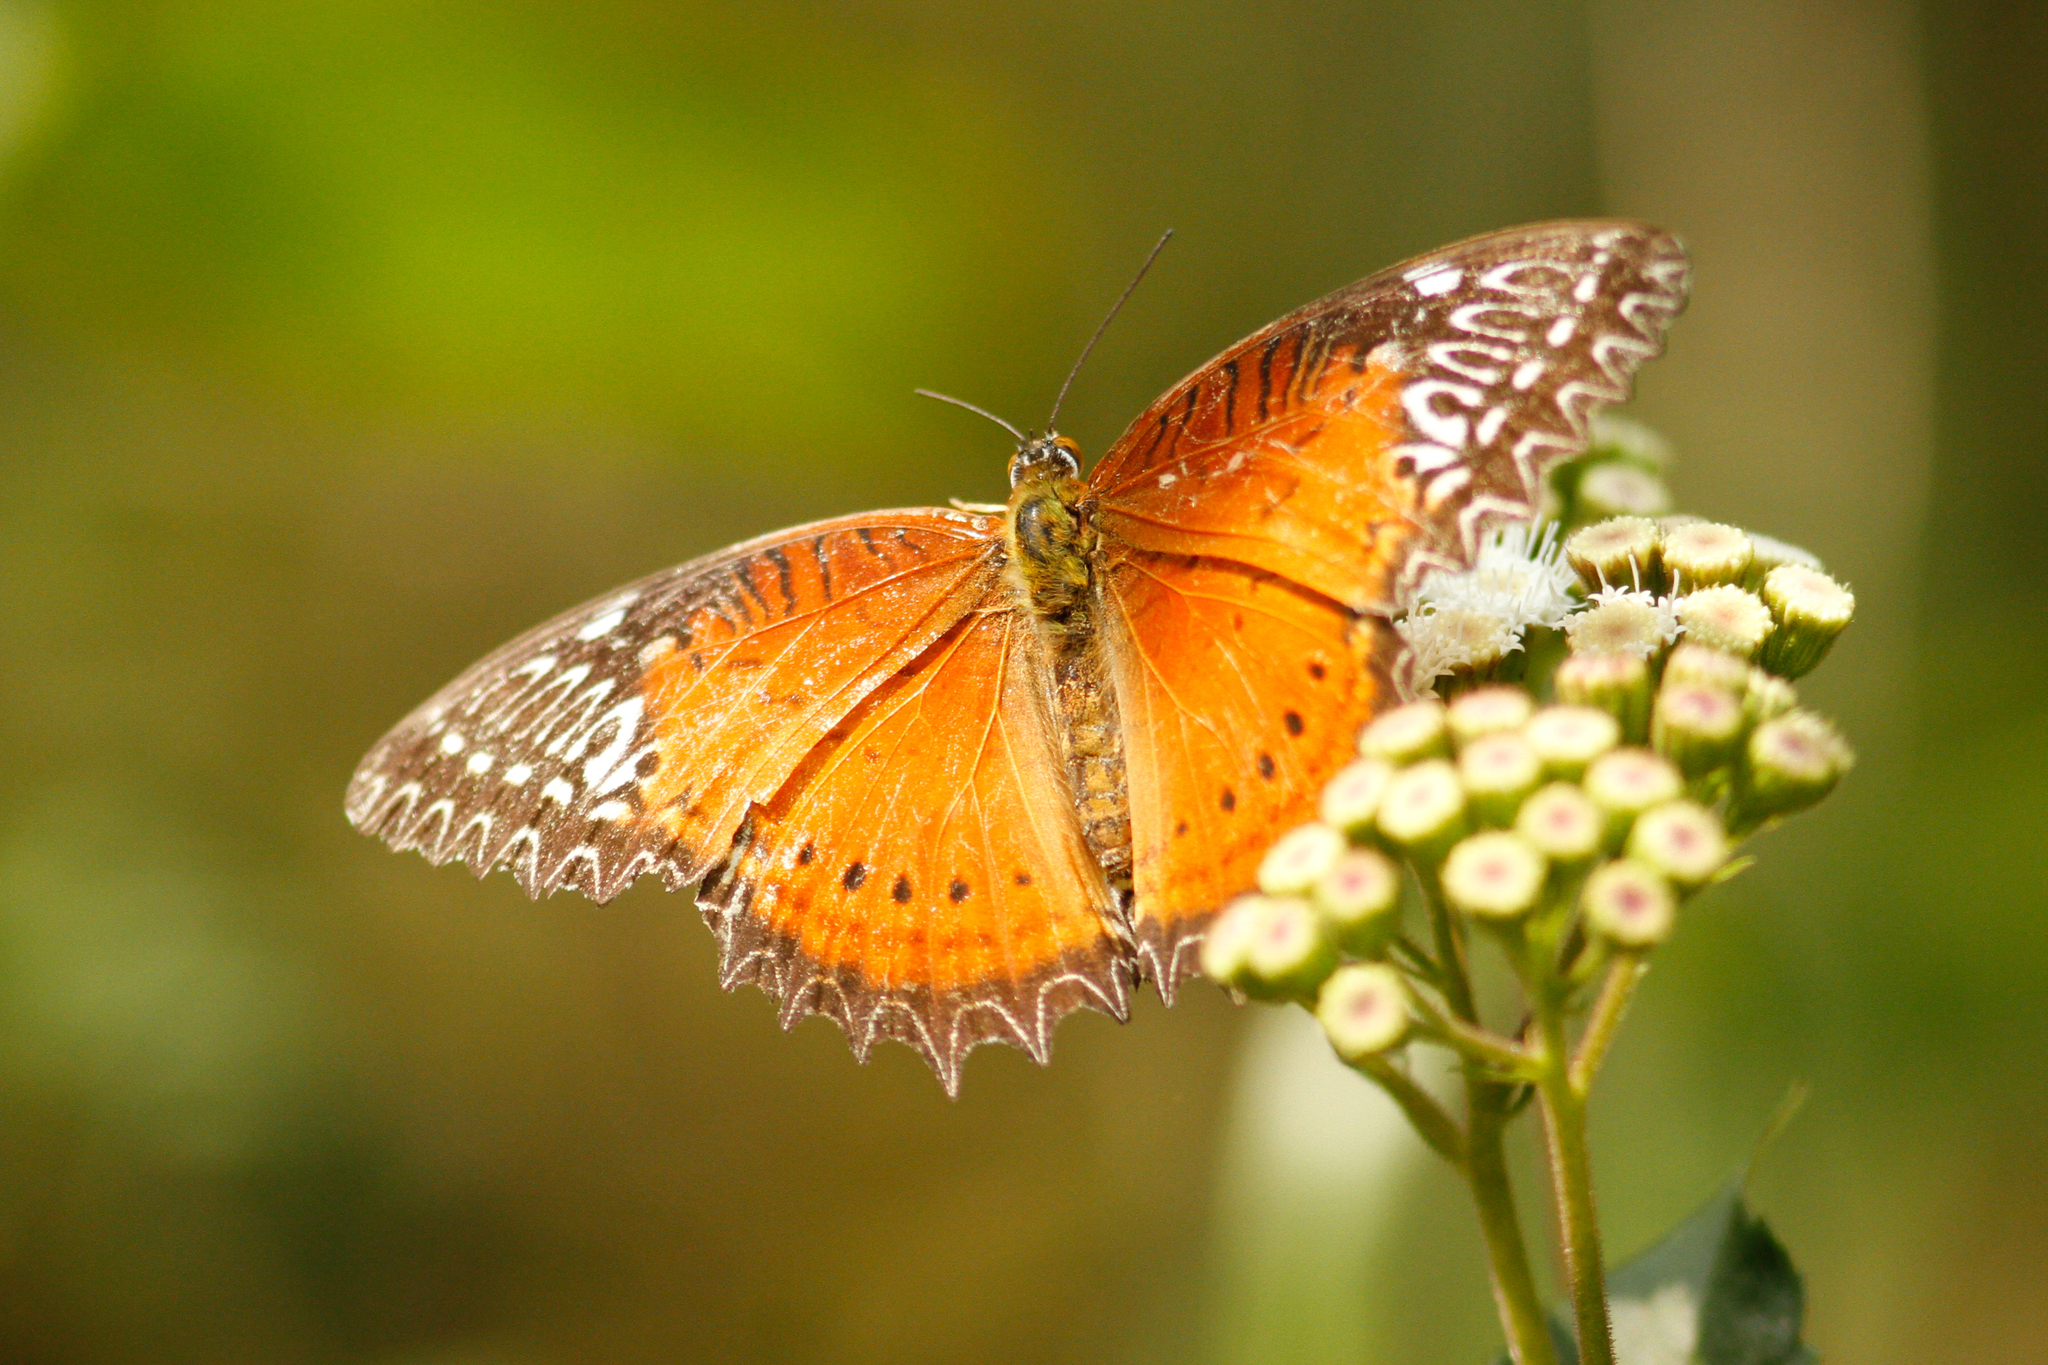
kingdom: Animalia
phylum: Arthropoda
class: Insecta
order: Lepidoptera
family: Nymphalidae
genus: Cethosia
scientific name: Cethosia biblis
